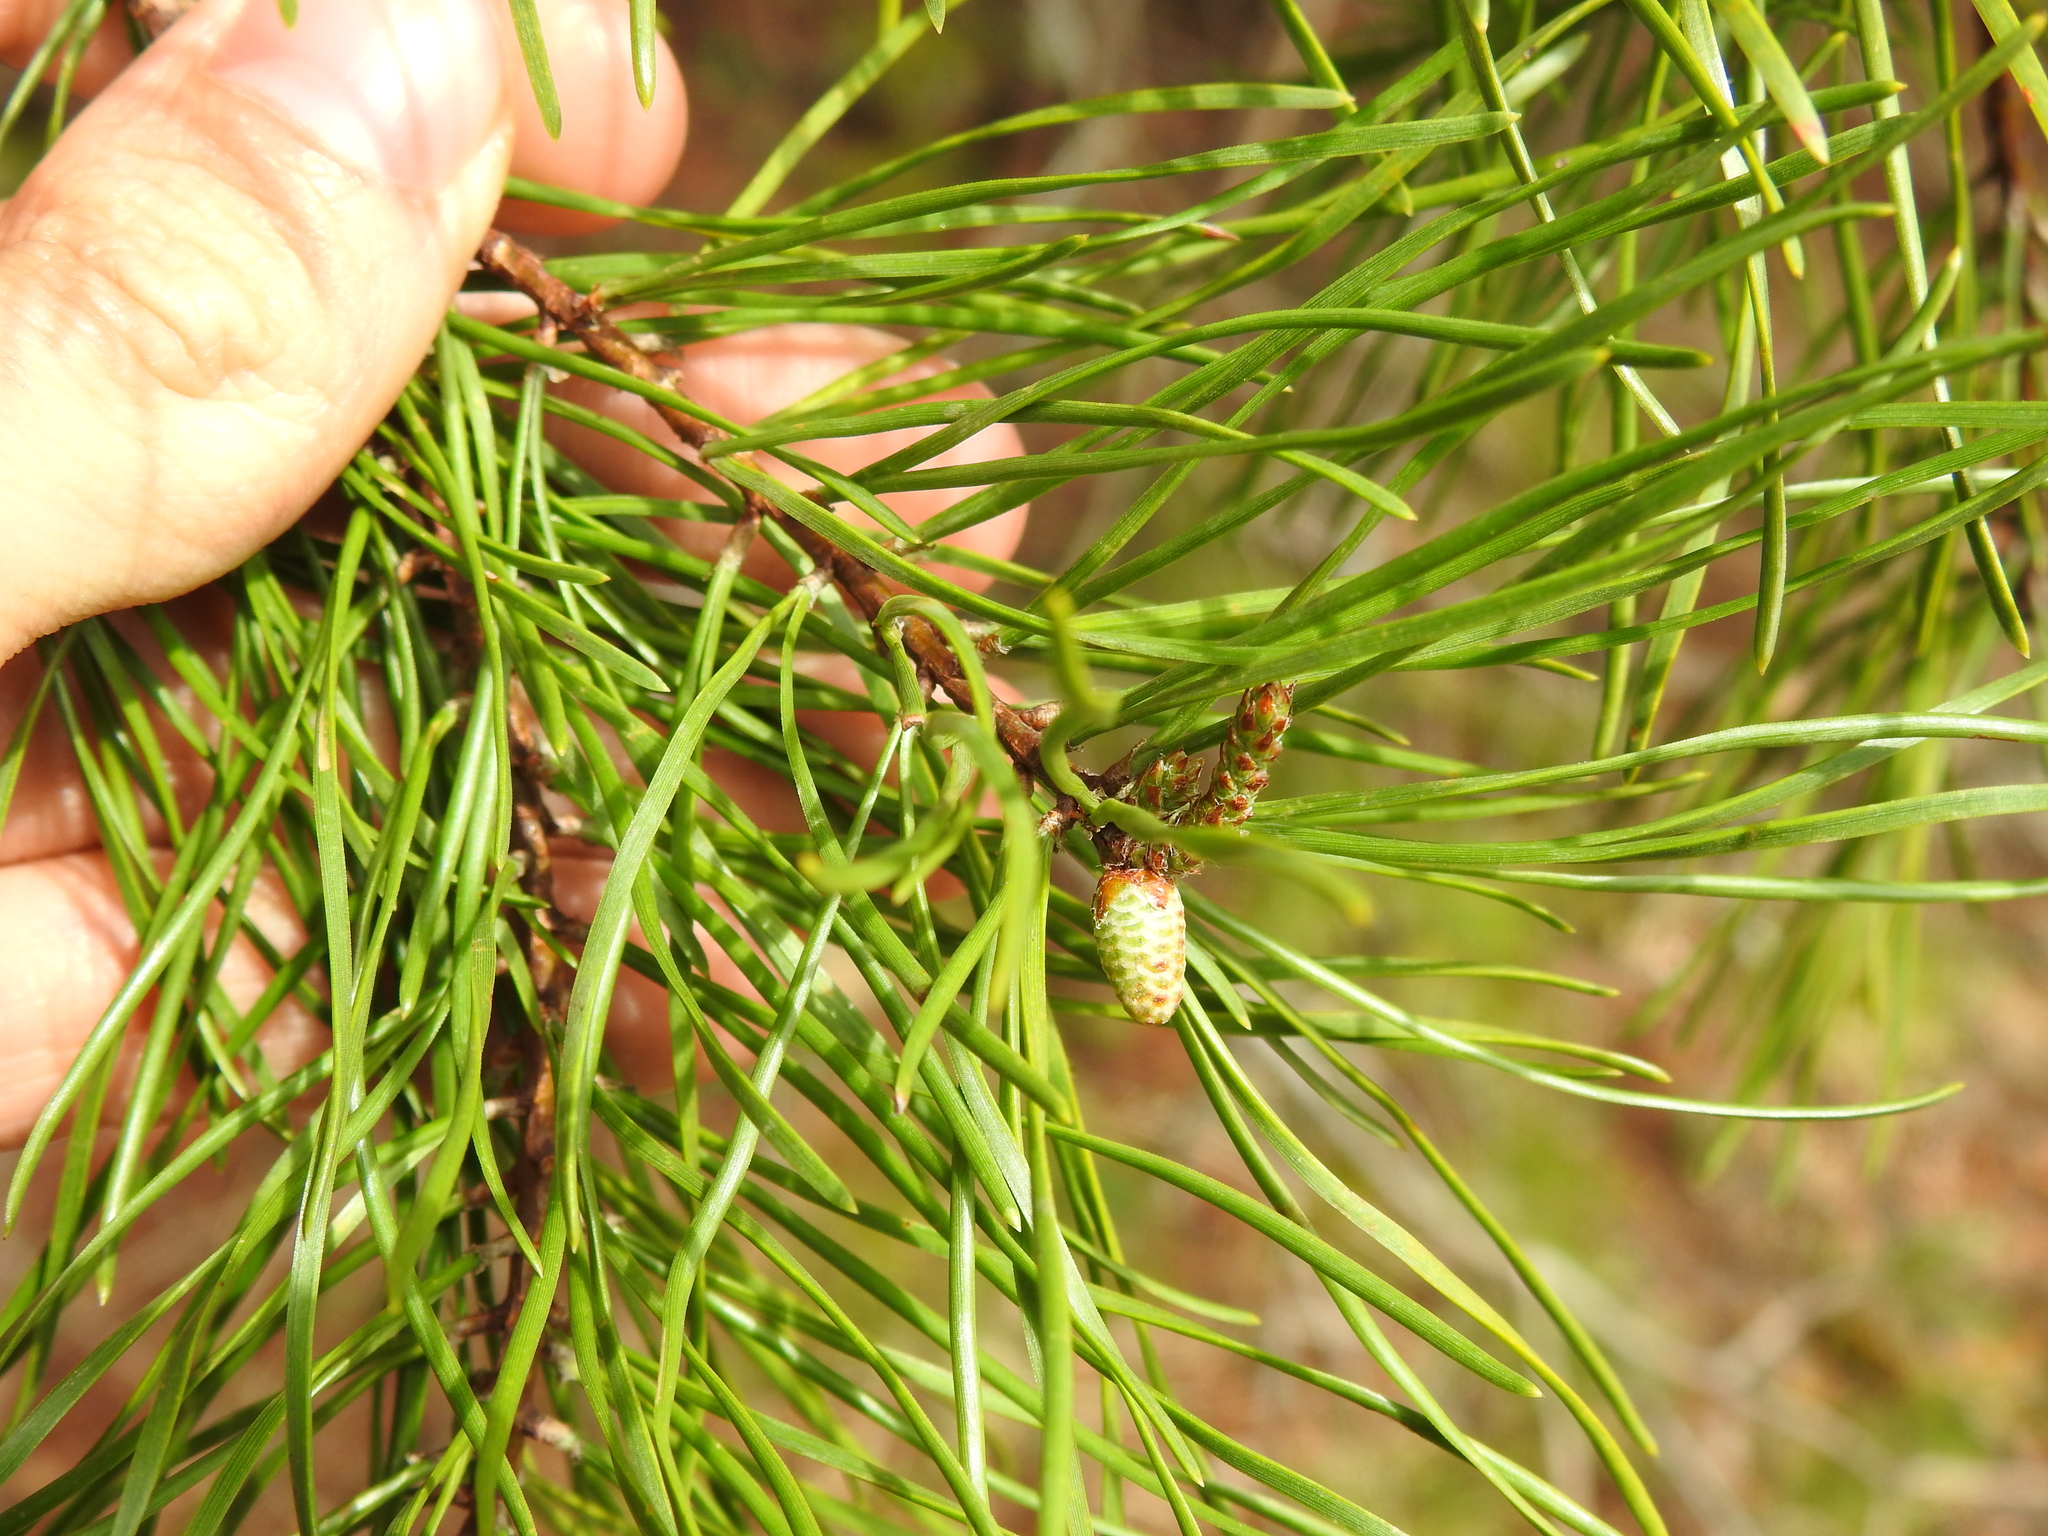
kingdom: Plantae
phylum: Tracheophyta
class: Pinopsida
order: Pinales
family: Pinaceae
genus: Pinus
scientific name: Pinus virginiana
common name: Scrub pine
